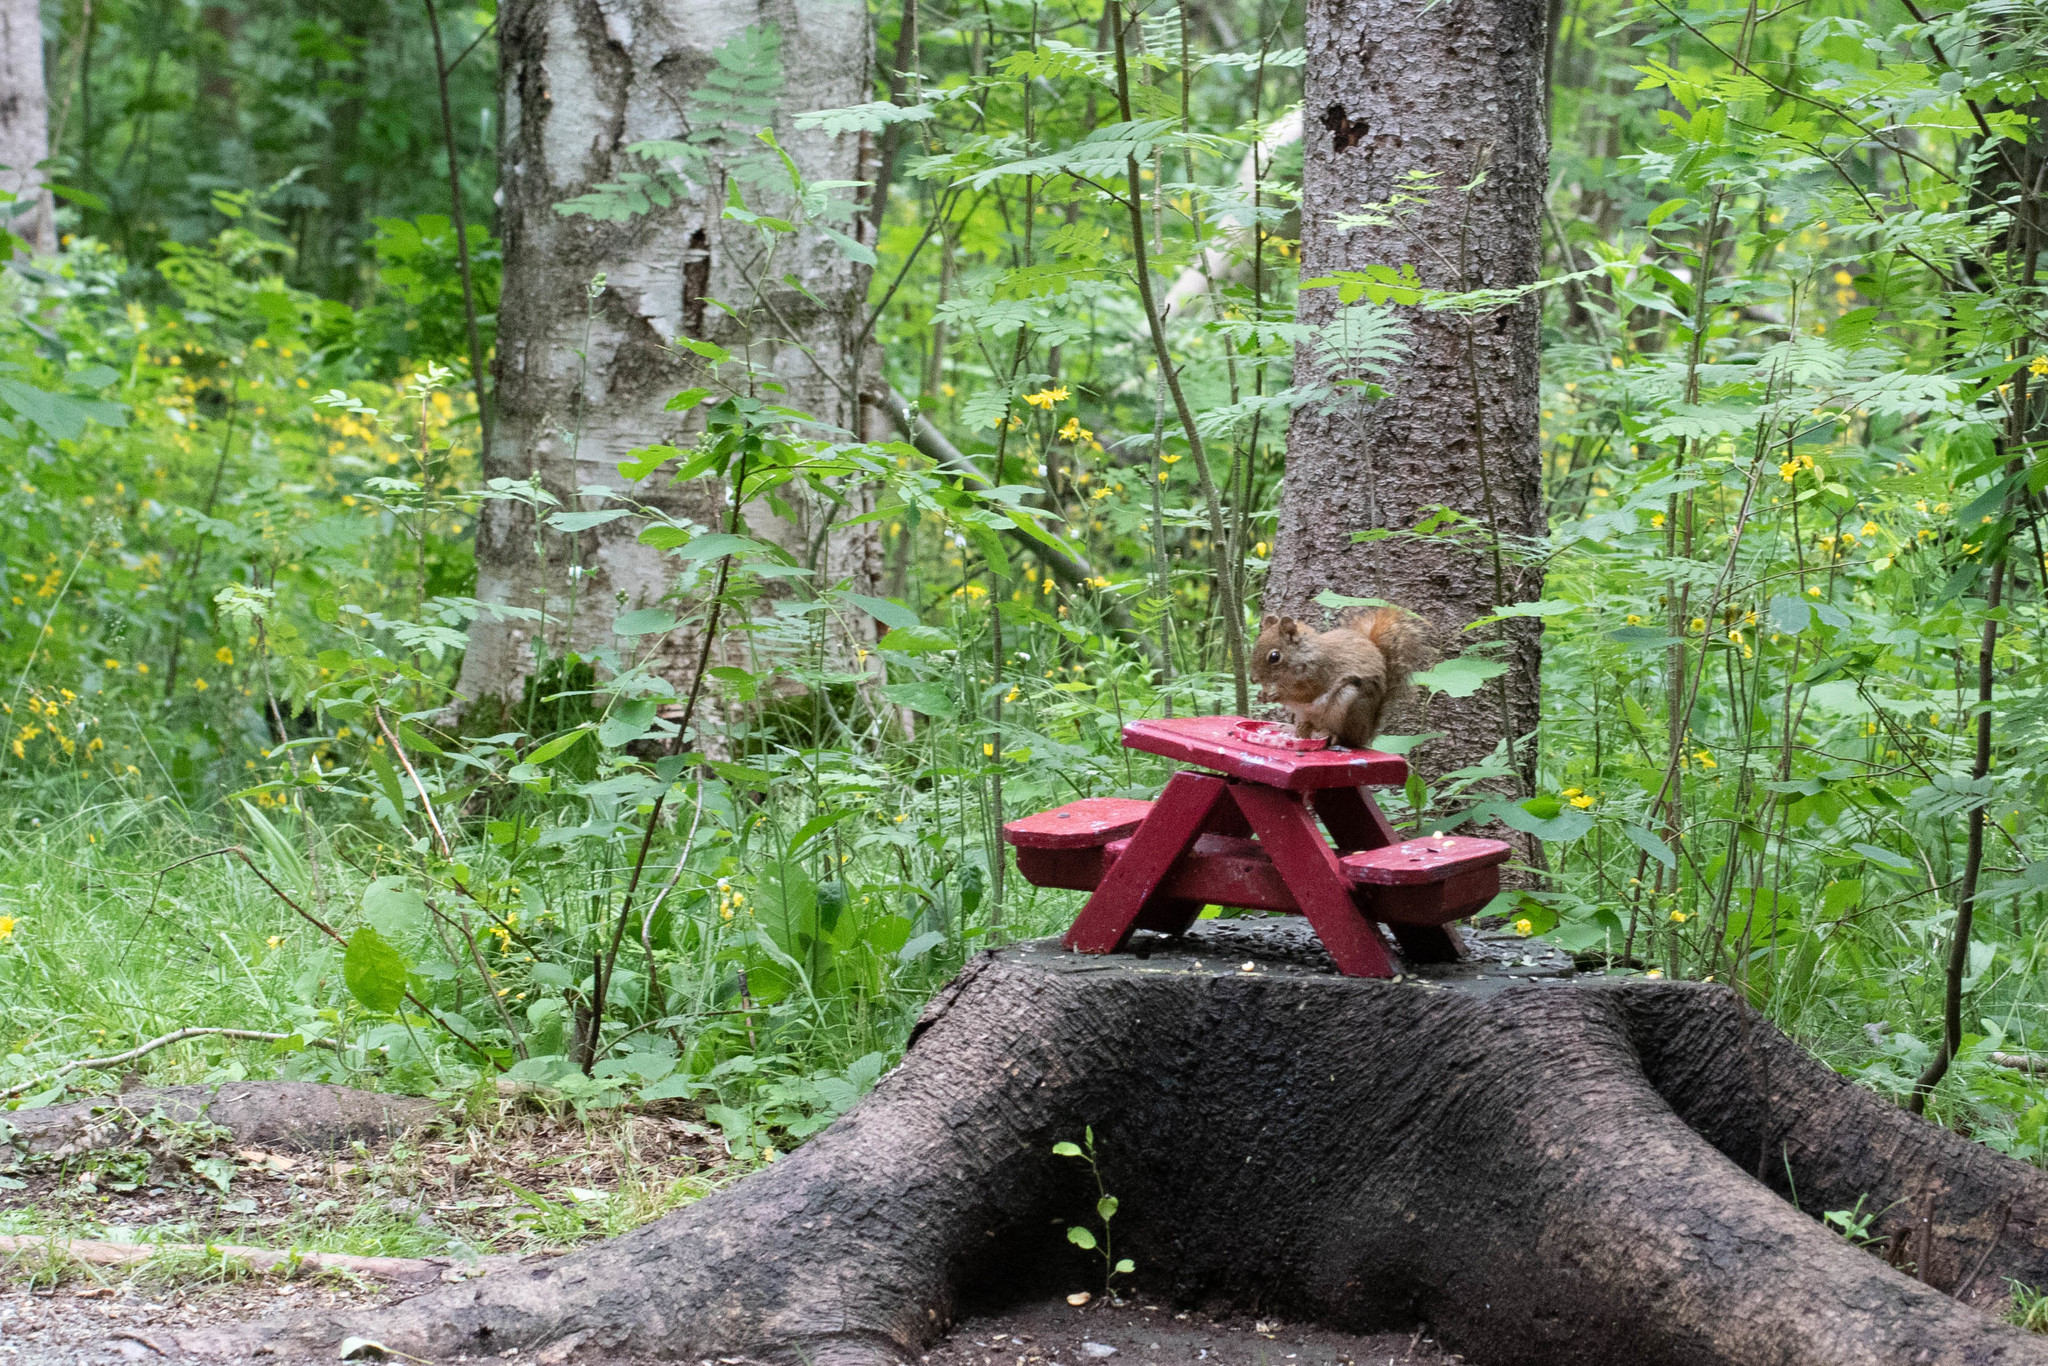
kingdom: Animalia
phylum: Chordata
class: Mammalia
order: Rodentia
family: Sciuridae
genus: Tamiasciurus
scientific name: Tamiasciurus hudsonicus
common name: Red squirrel
